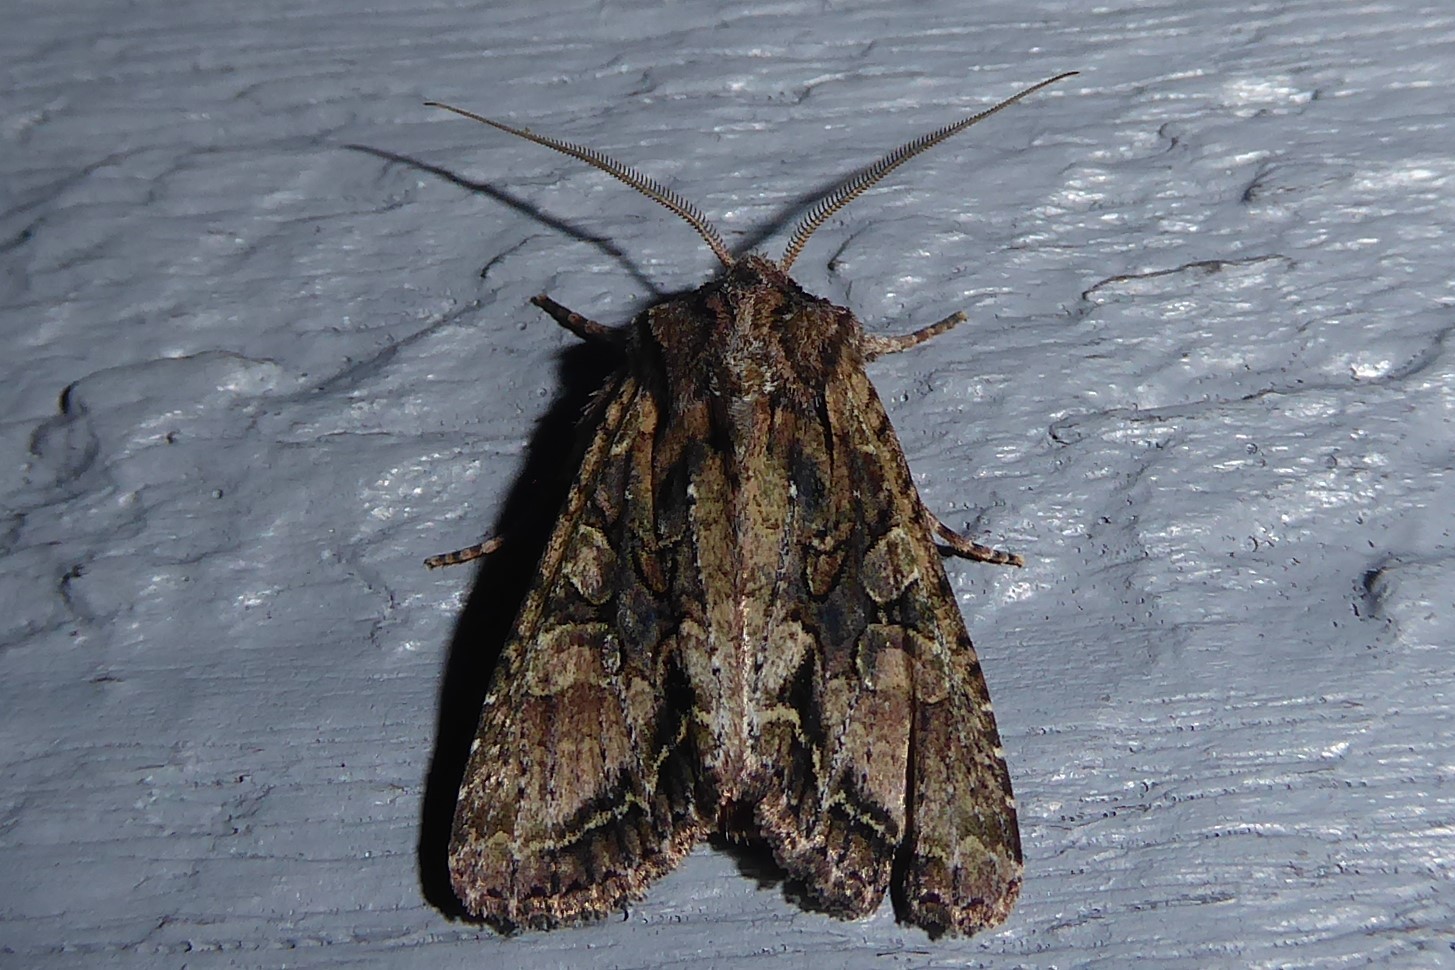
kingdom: Animalia
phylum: Arthropoda
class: Insecta
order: Lepidoptera
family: Noctuidae
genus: Ichneutica
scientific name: Ichneutica mutans
